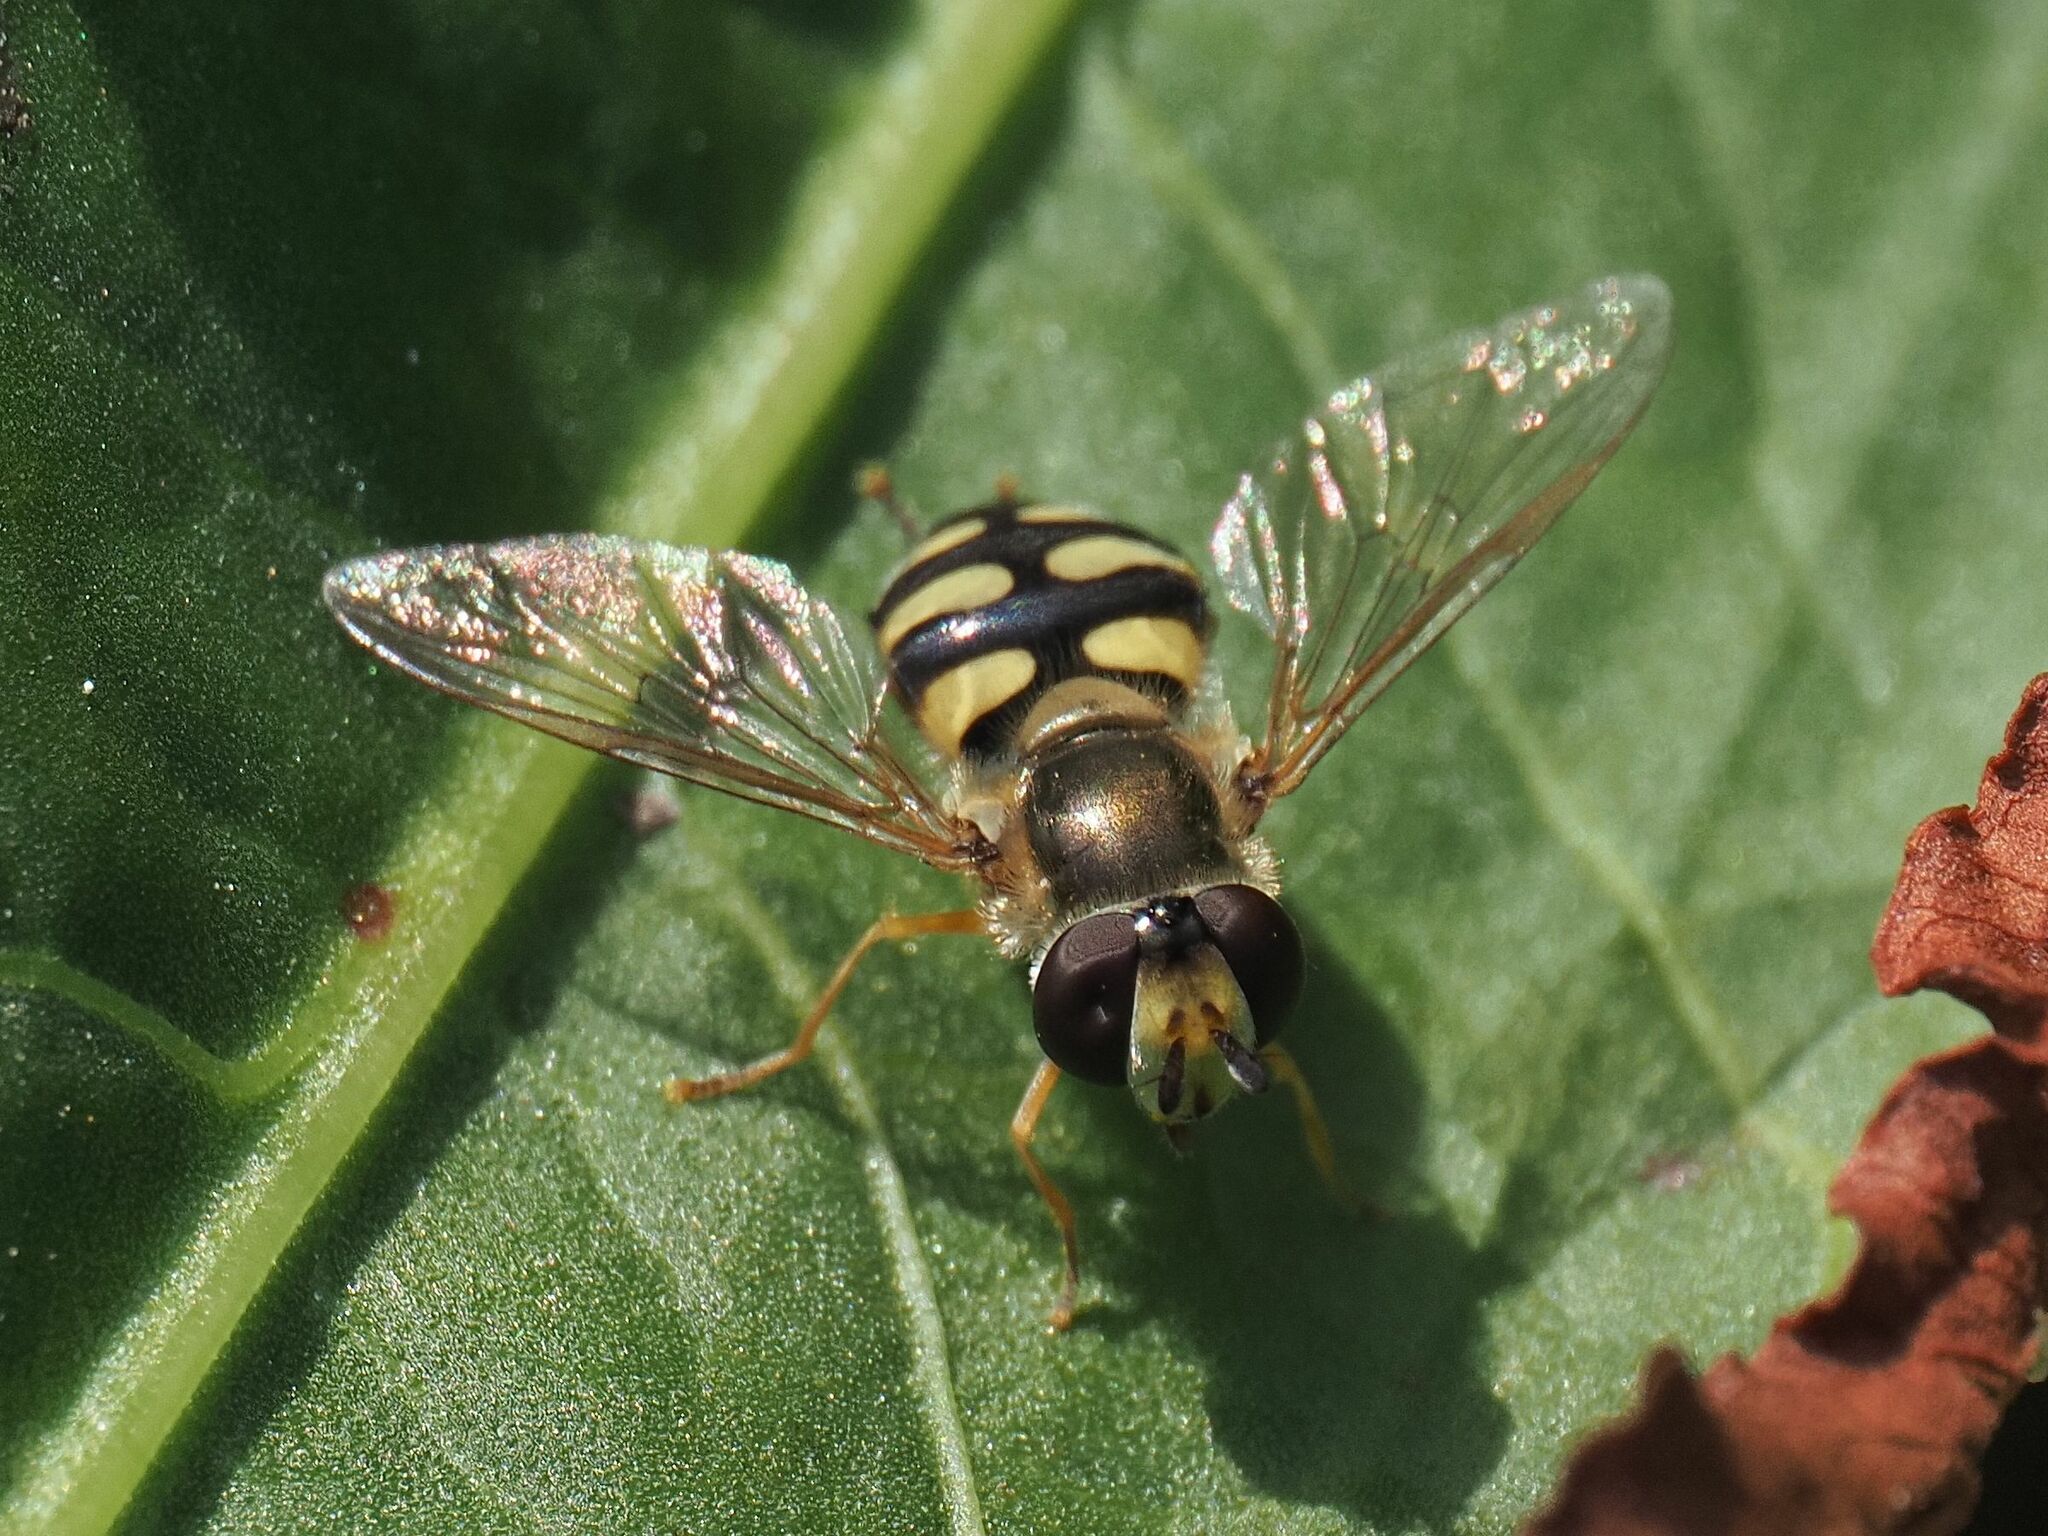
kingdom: Animalia
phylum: Arthropoda
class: Insecta
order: Diptera
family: Syrphidae
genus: Eupeodes
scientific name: Eupeodes corollae
